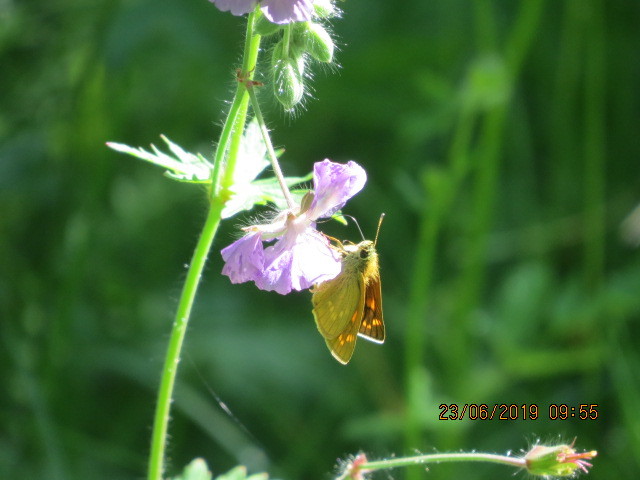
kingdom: Animalia
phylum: Arthropoda
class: Insecta
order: Lepidoptera
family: Hesperiidae
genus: Ochlodes
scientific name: Ochlodes venata
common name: Large skipper
